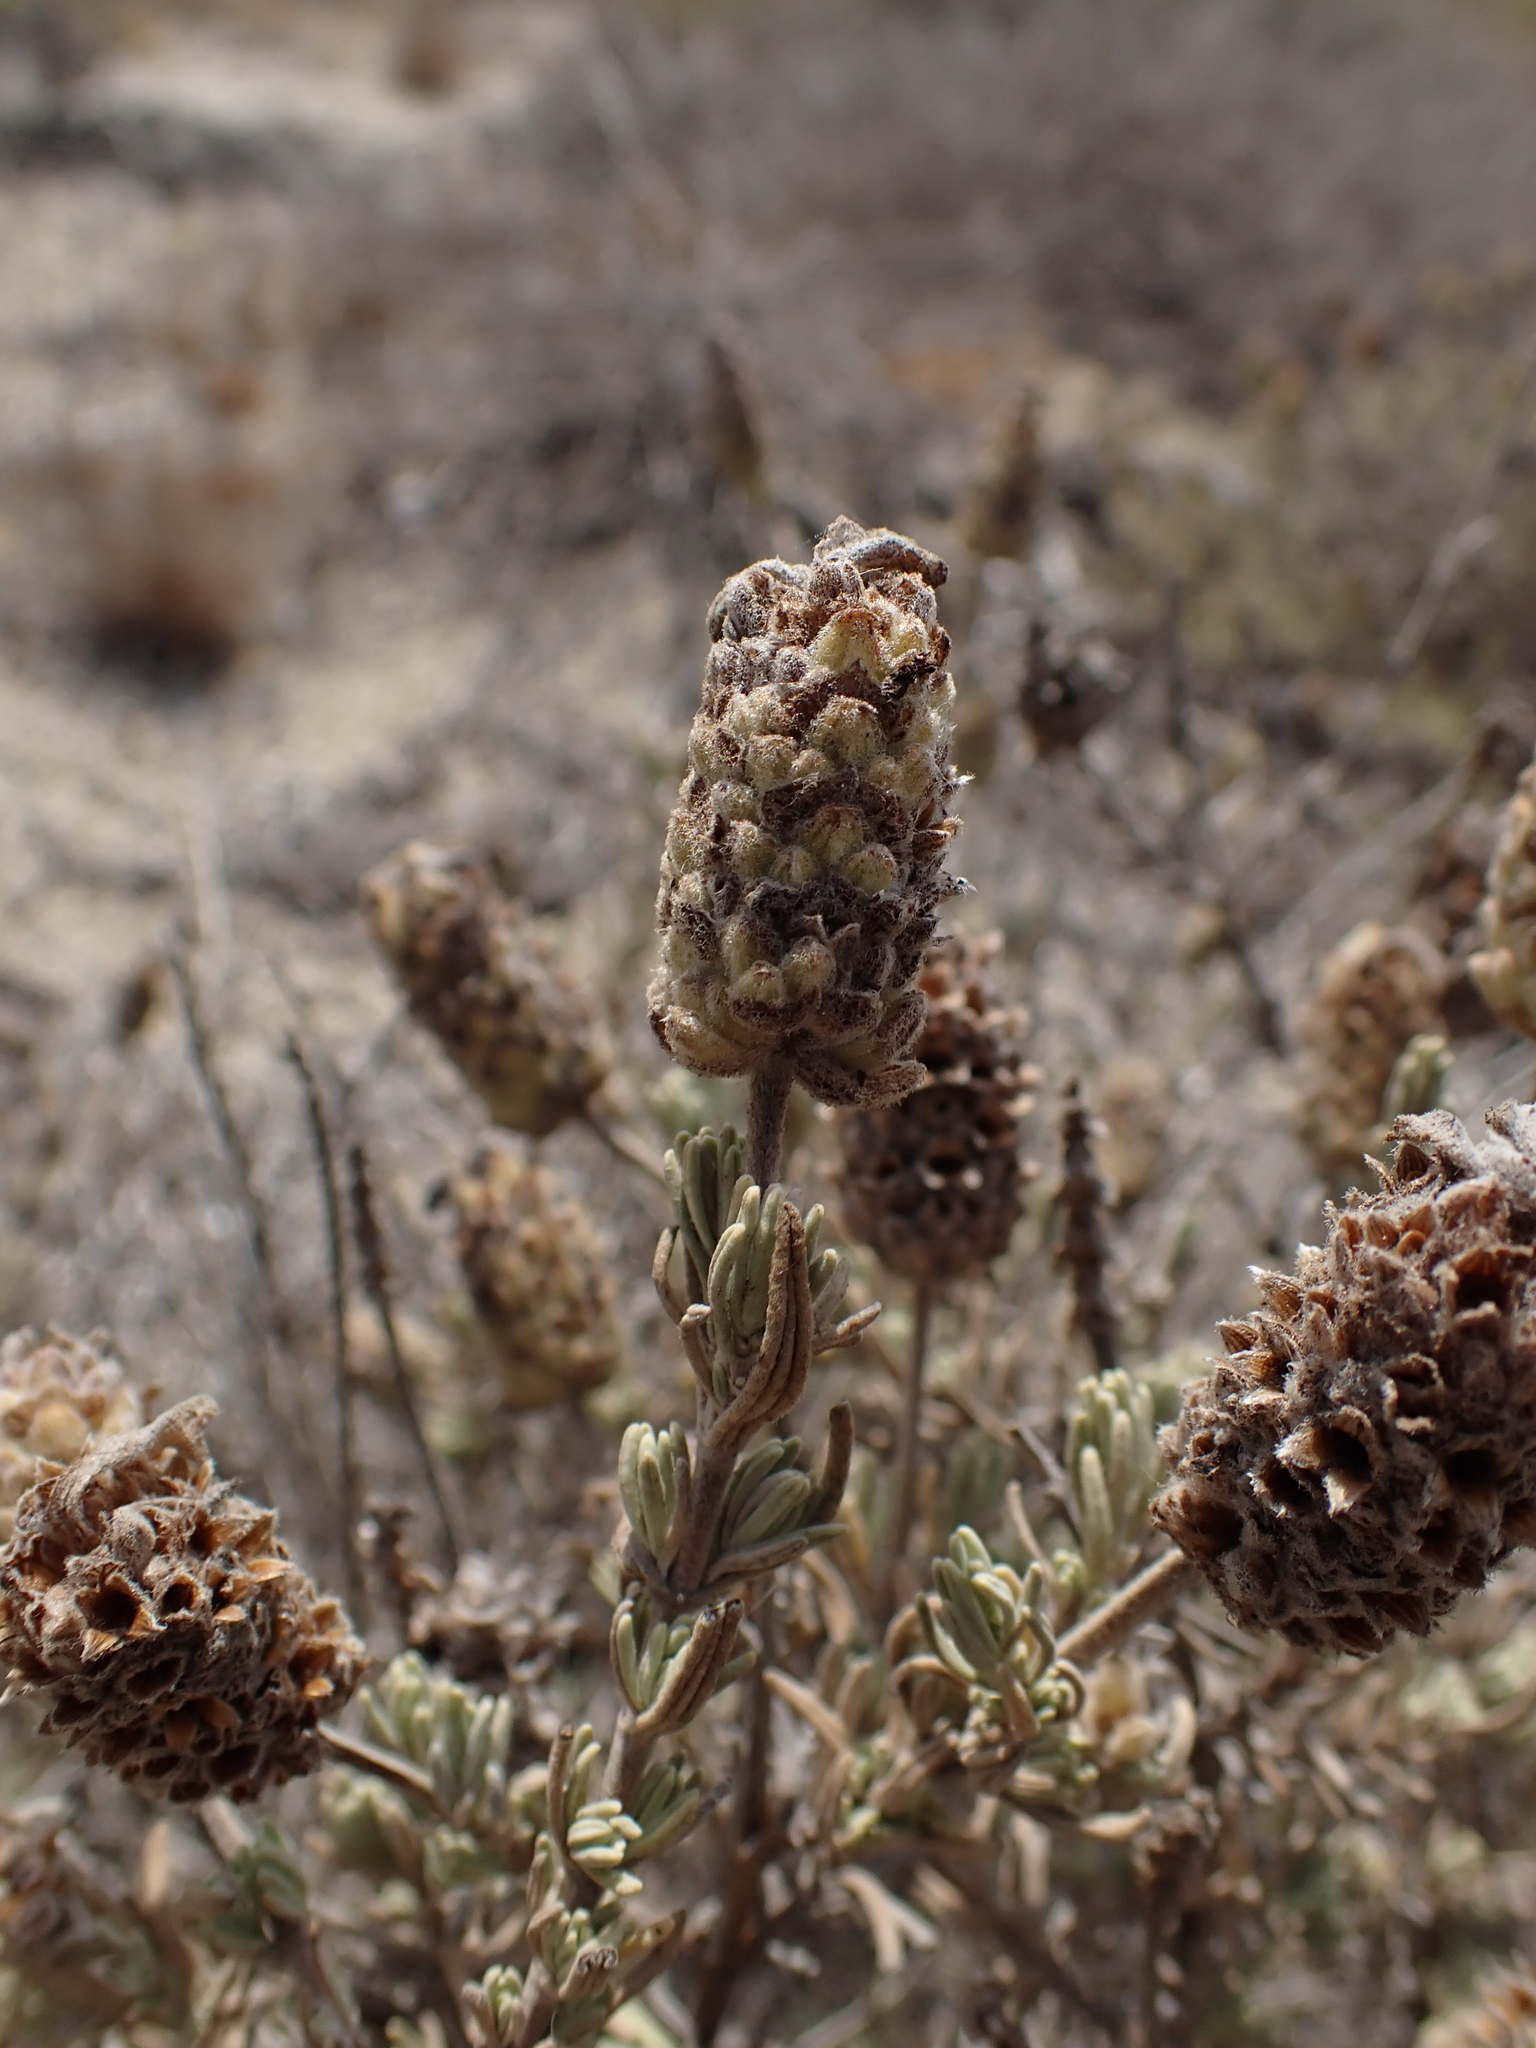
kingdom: Plantae
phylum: Tracheophyta
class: Magnoliopsida
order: Lamiales
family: Lamiaceae
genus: Lavandula
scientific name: Lavandula stoechas
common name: French lavender
